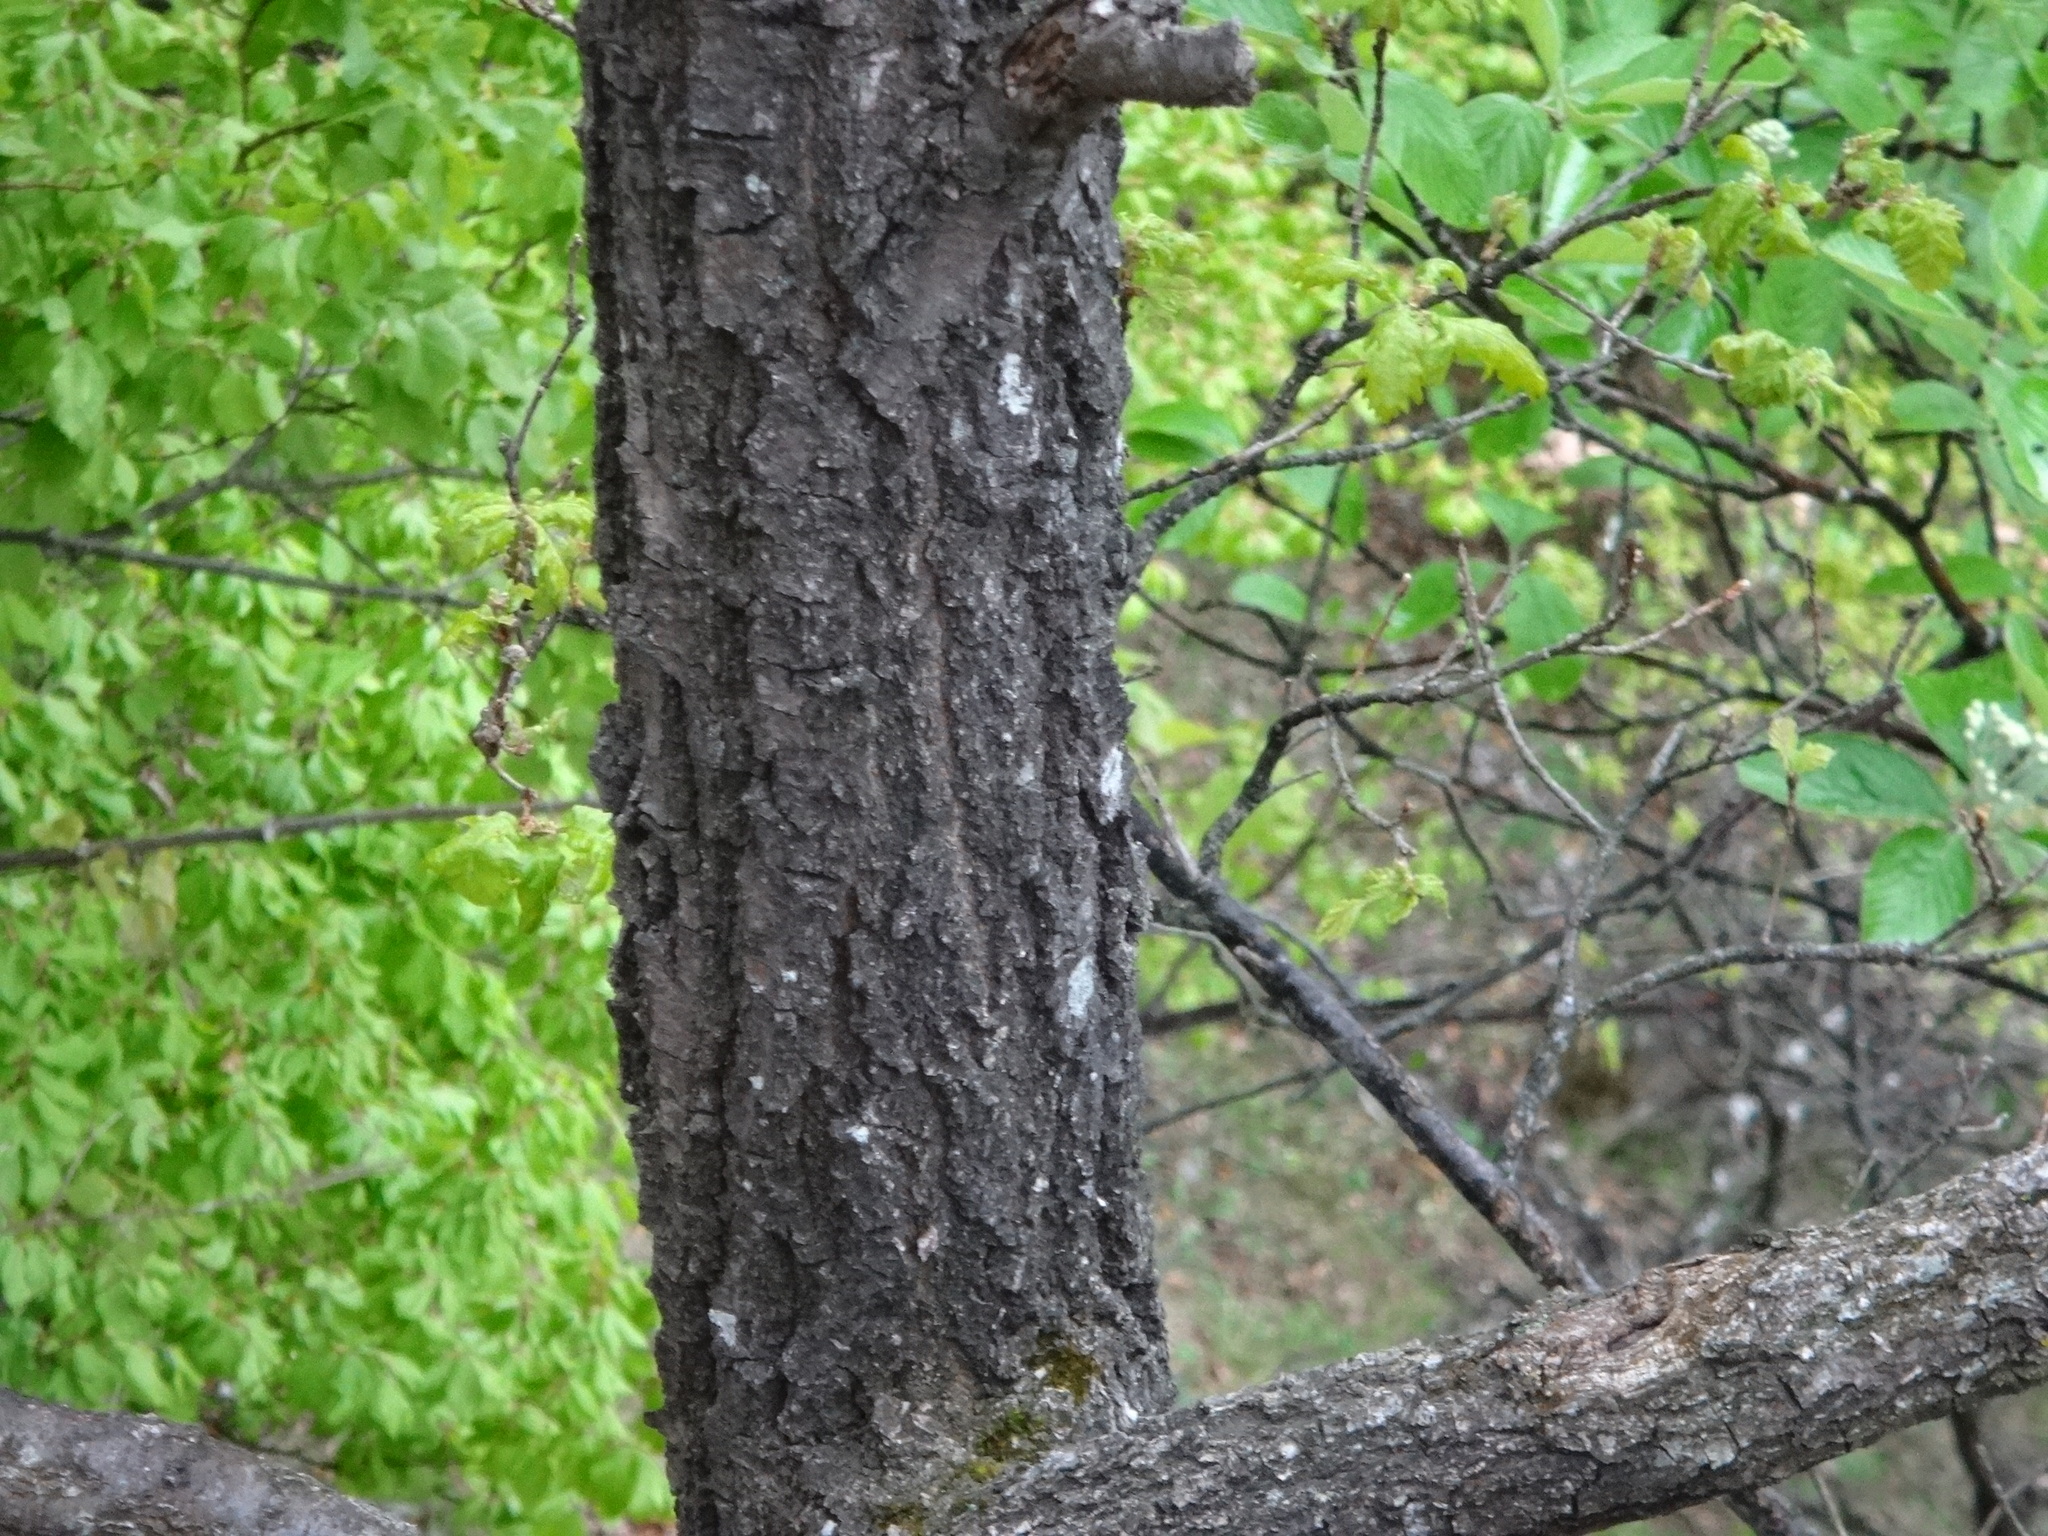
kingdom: Plantae
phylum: Tracheophyta
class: Magnoliopsida
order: Fagales
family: Fagaceae
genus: Quercus
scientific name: Quercus robur
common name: Pedunculate oak
